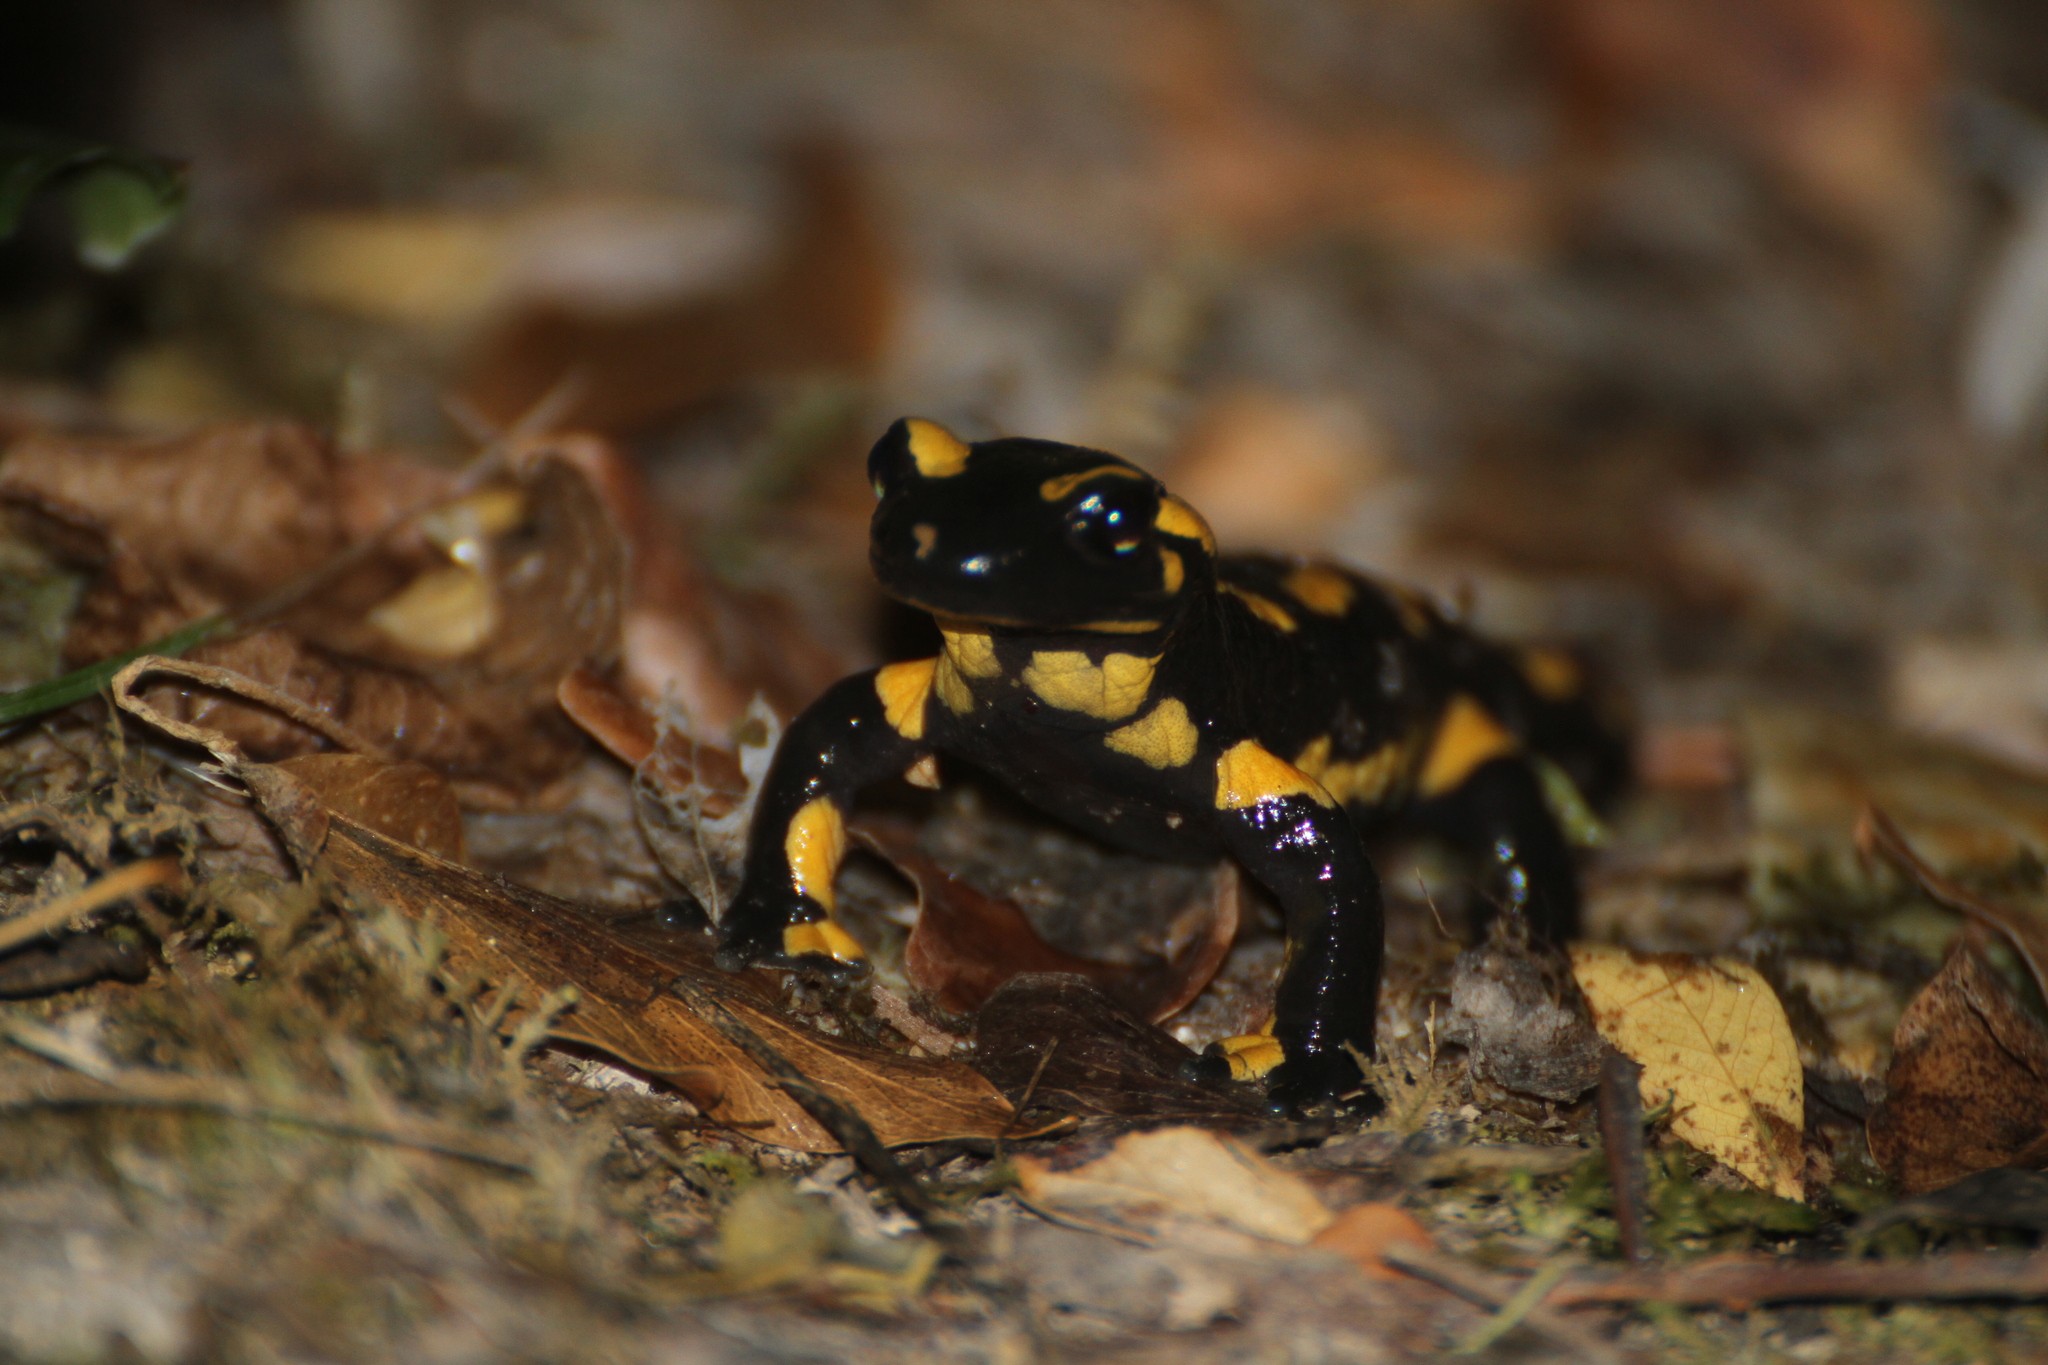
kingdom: Animalia
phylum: Chordata
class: Amphibia
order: Caudata
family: Salamandridae
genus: Salamandra
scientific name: Salamandra salamandra
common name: Fire salamander
